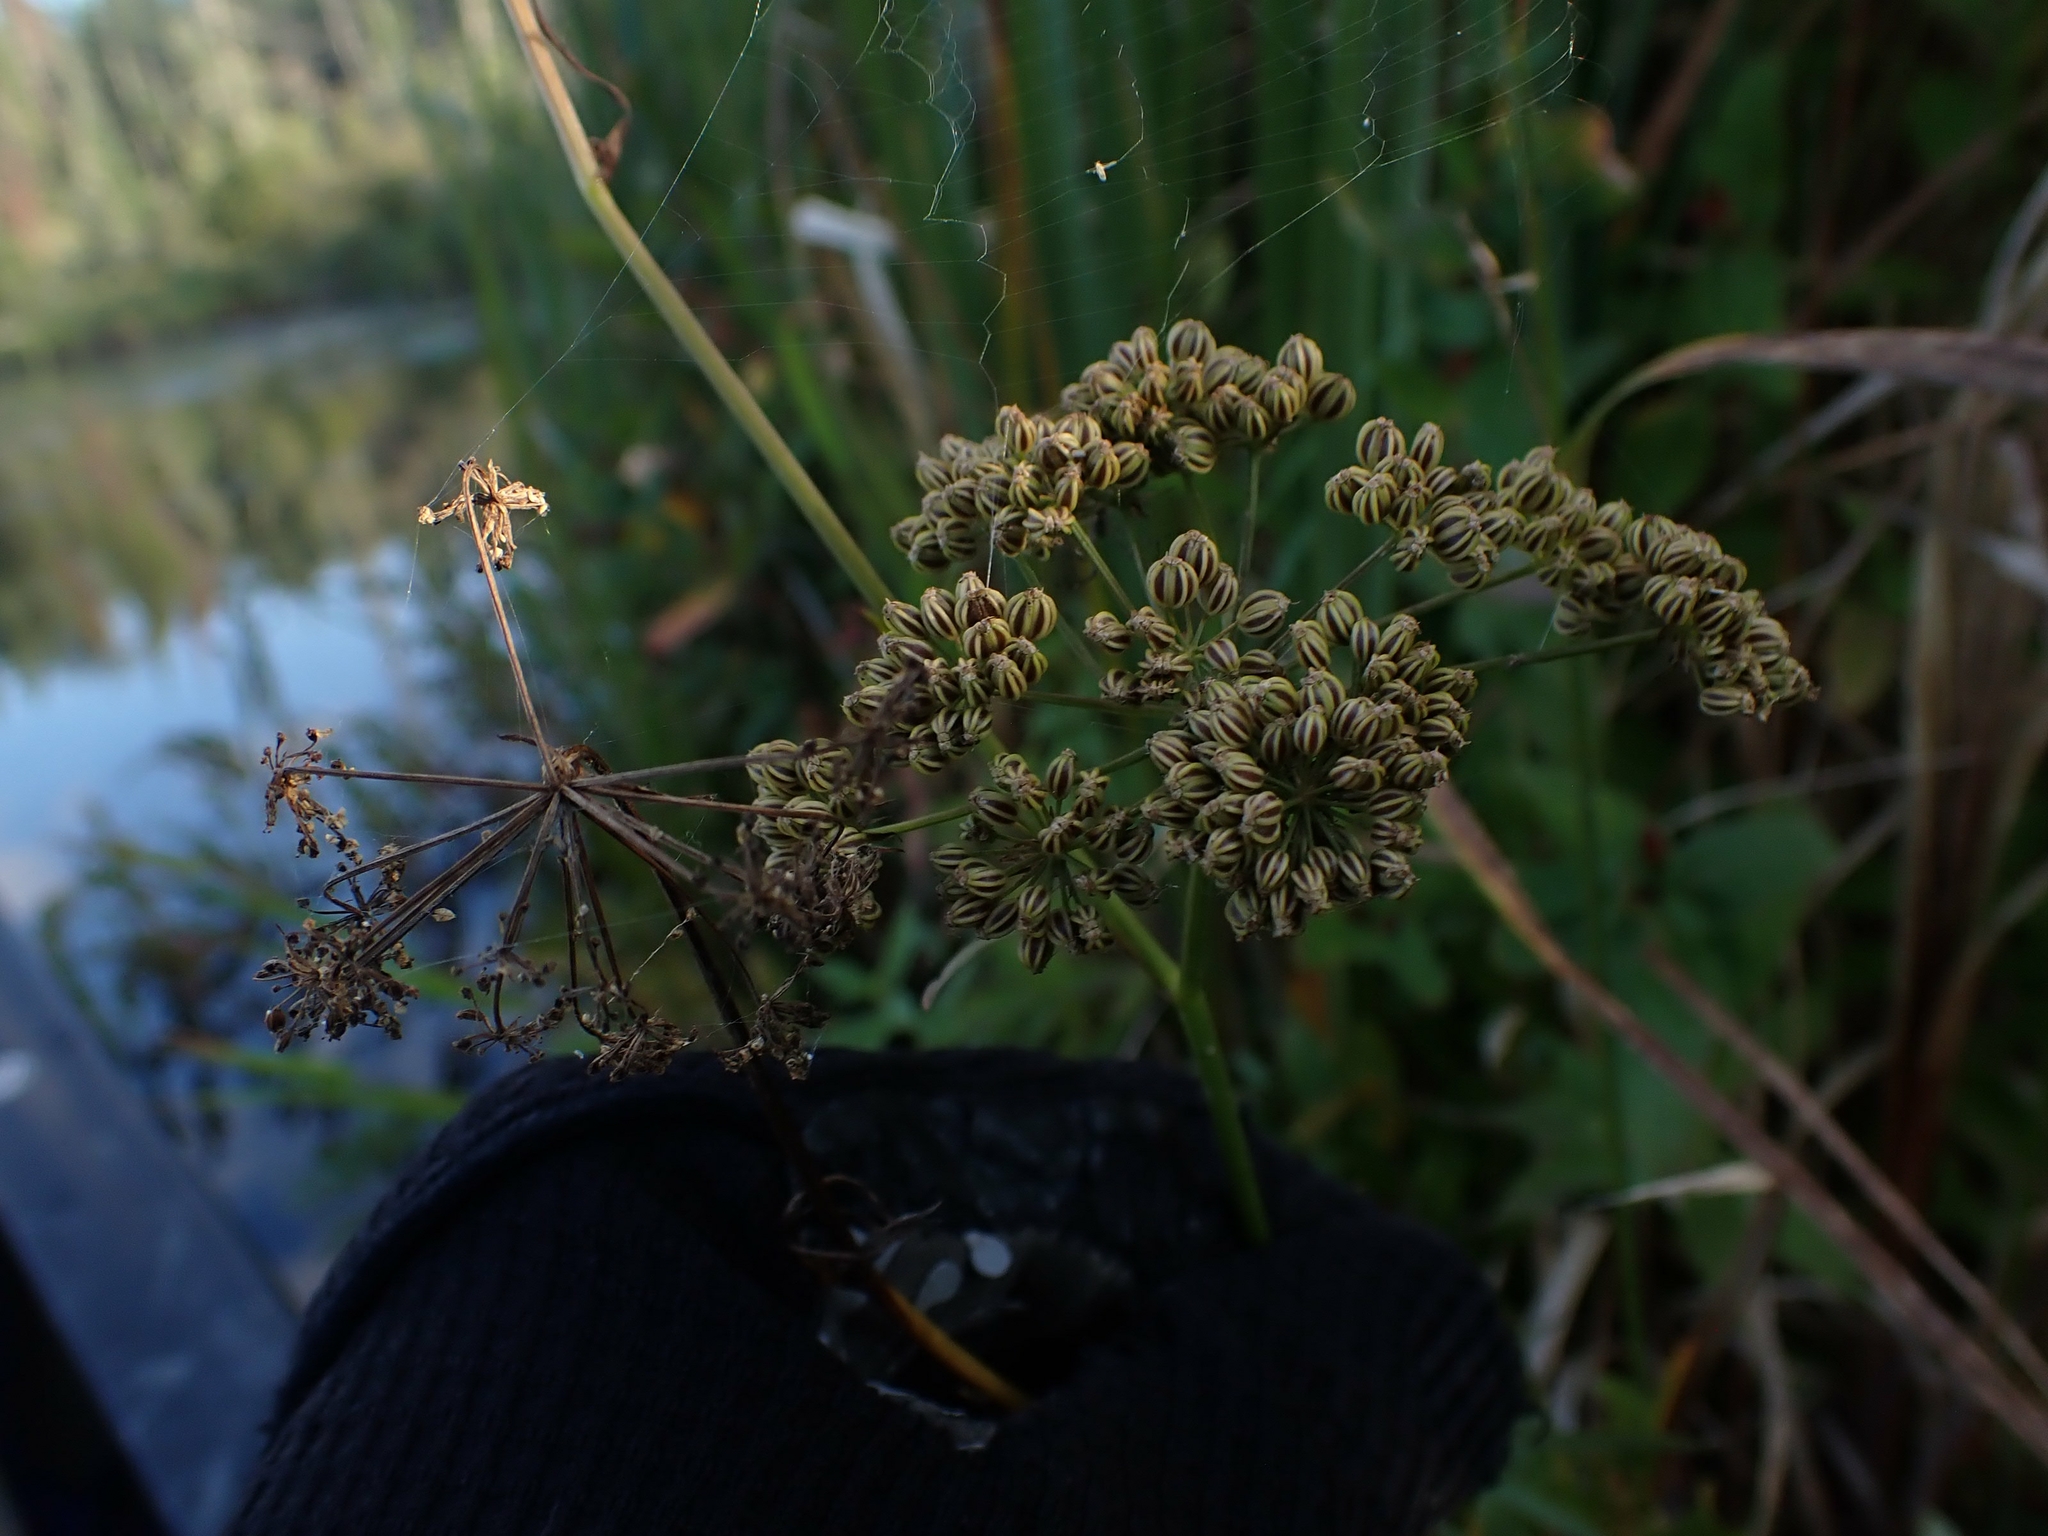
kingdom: Plantae
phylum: Tracheophyta
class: Magnoliopsida
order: Apiales
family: Apiaceae
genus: Cicuta
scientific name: Cicuta bulbifera
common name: Bulb-bearing water-hemlock
